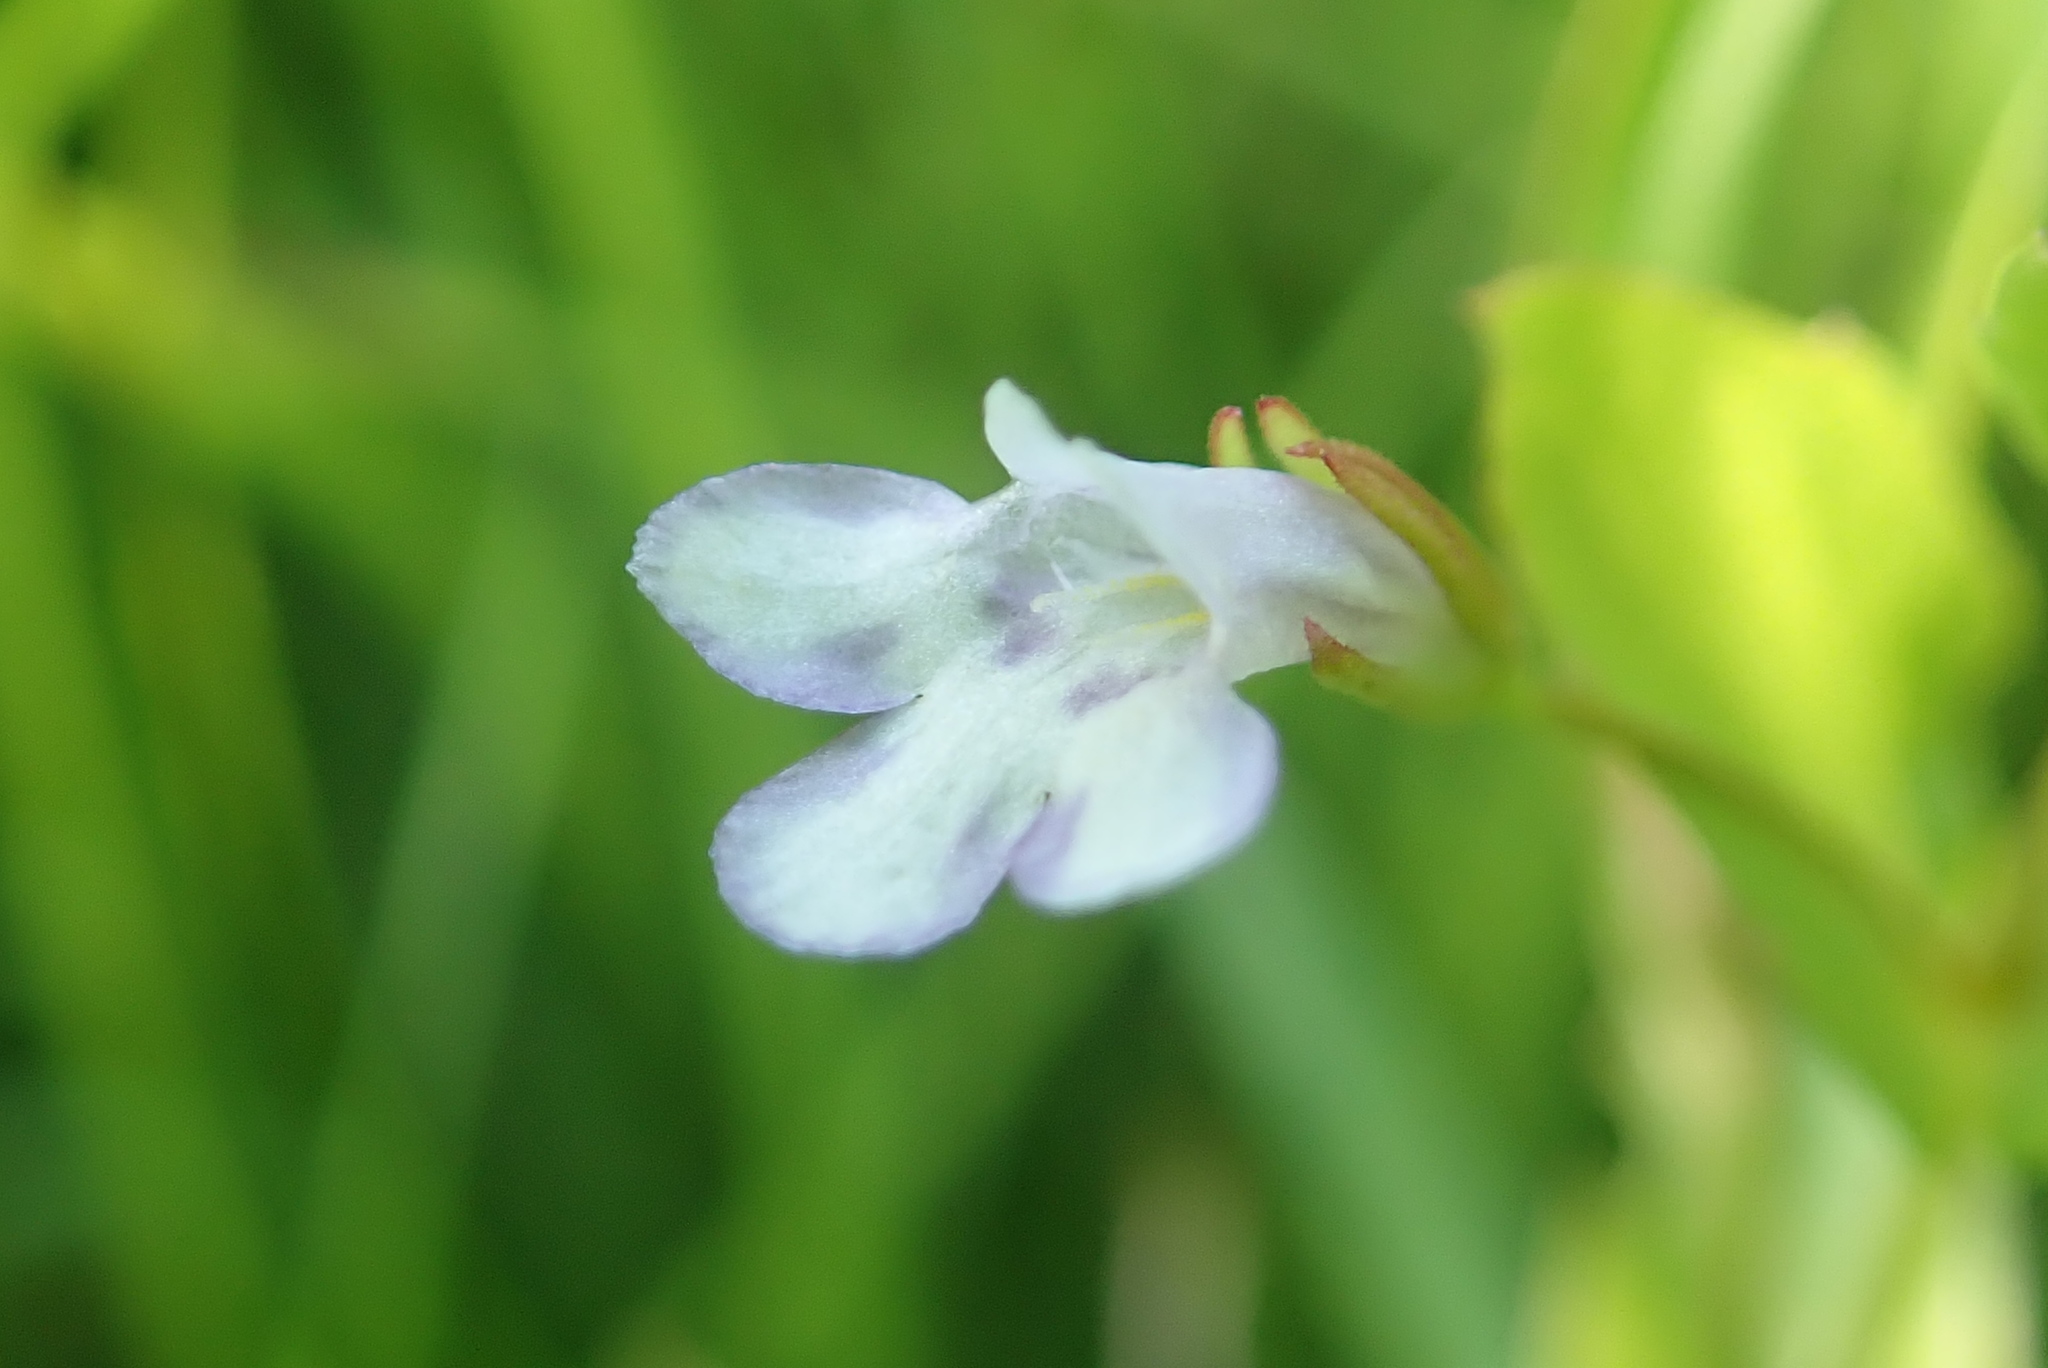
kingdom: Plantae
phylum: Tracheophyta
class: Magnoliopsida
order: Lamiales
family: Linderniaceae
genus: Lindernia
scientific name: Lindernia dubia
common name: Annual false pimpernel
